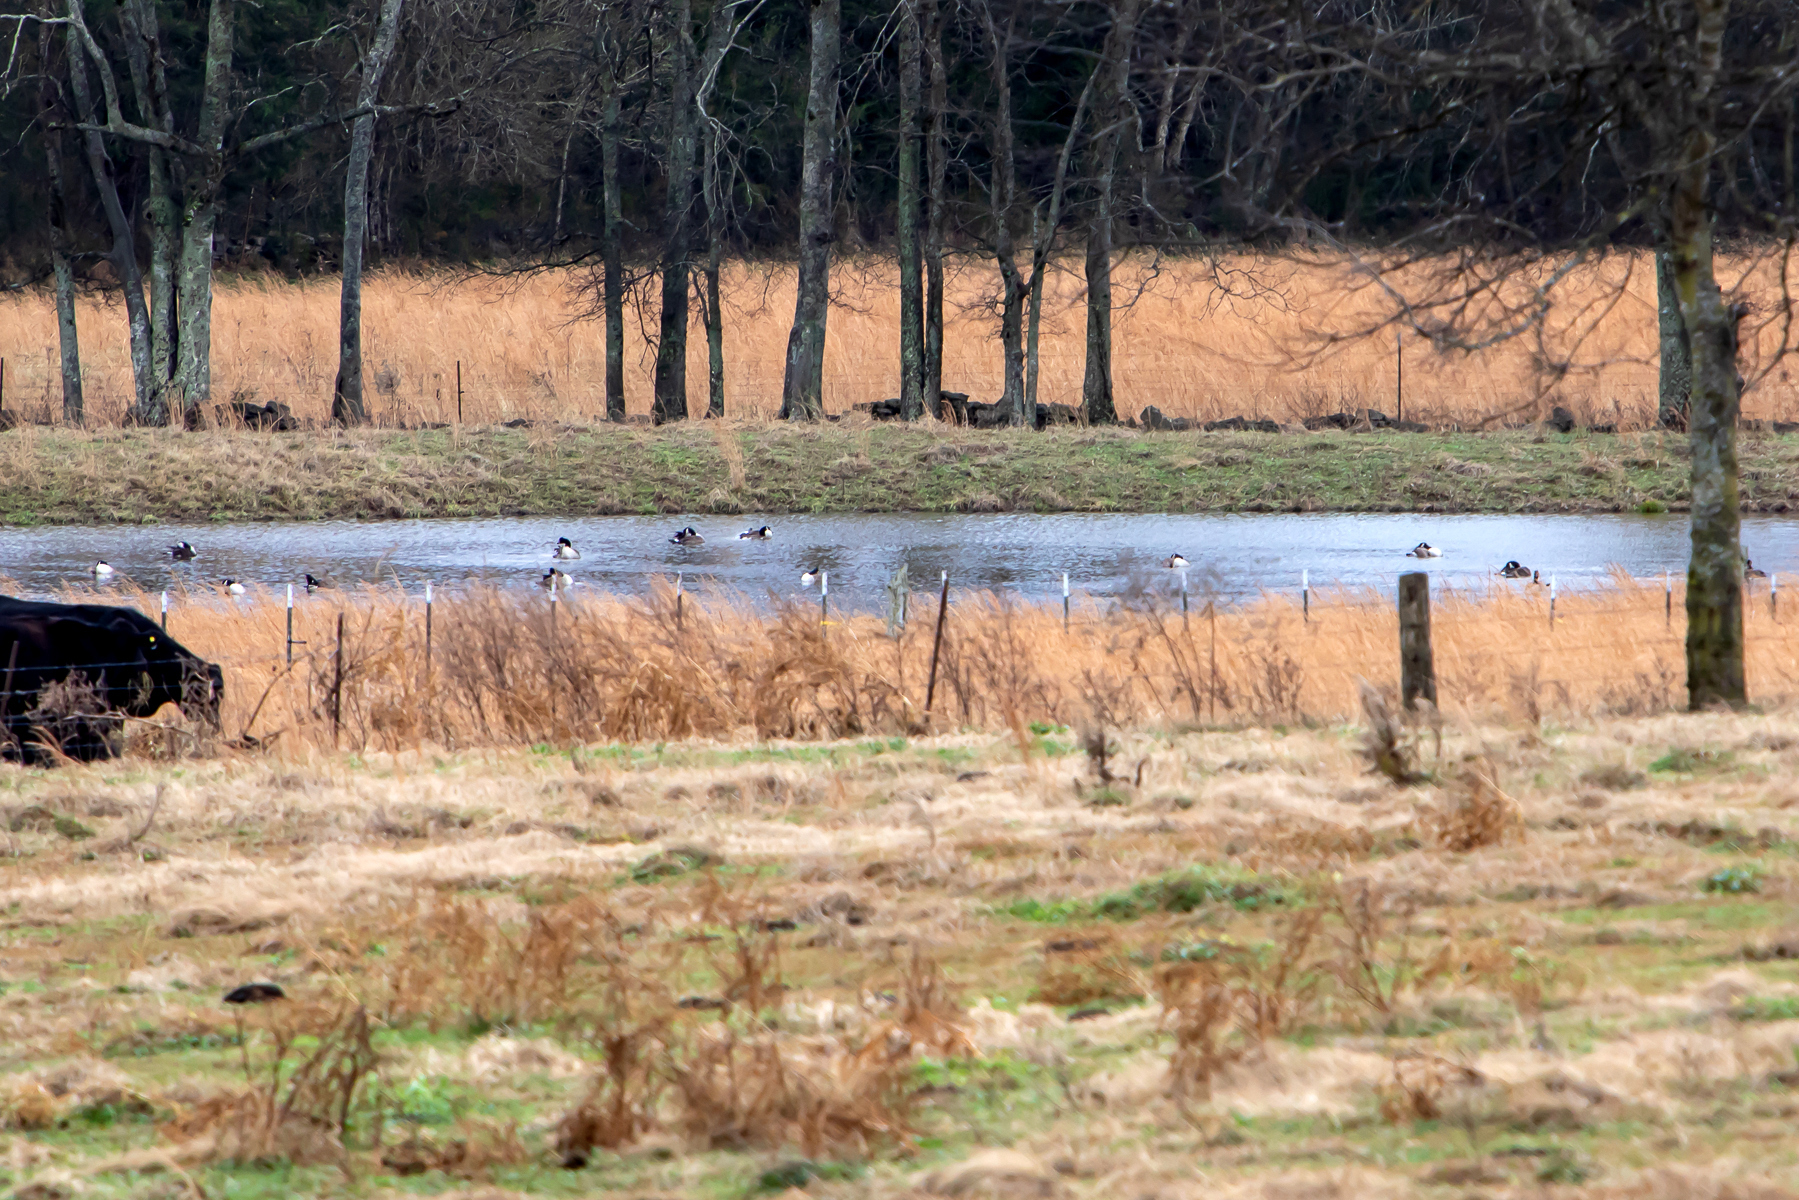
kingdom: Animalia
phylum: Chordata
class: Aves
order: Anseriformes
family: Anatidae
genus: Branta
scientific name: Branta canadensis
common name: Canada goose
